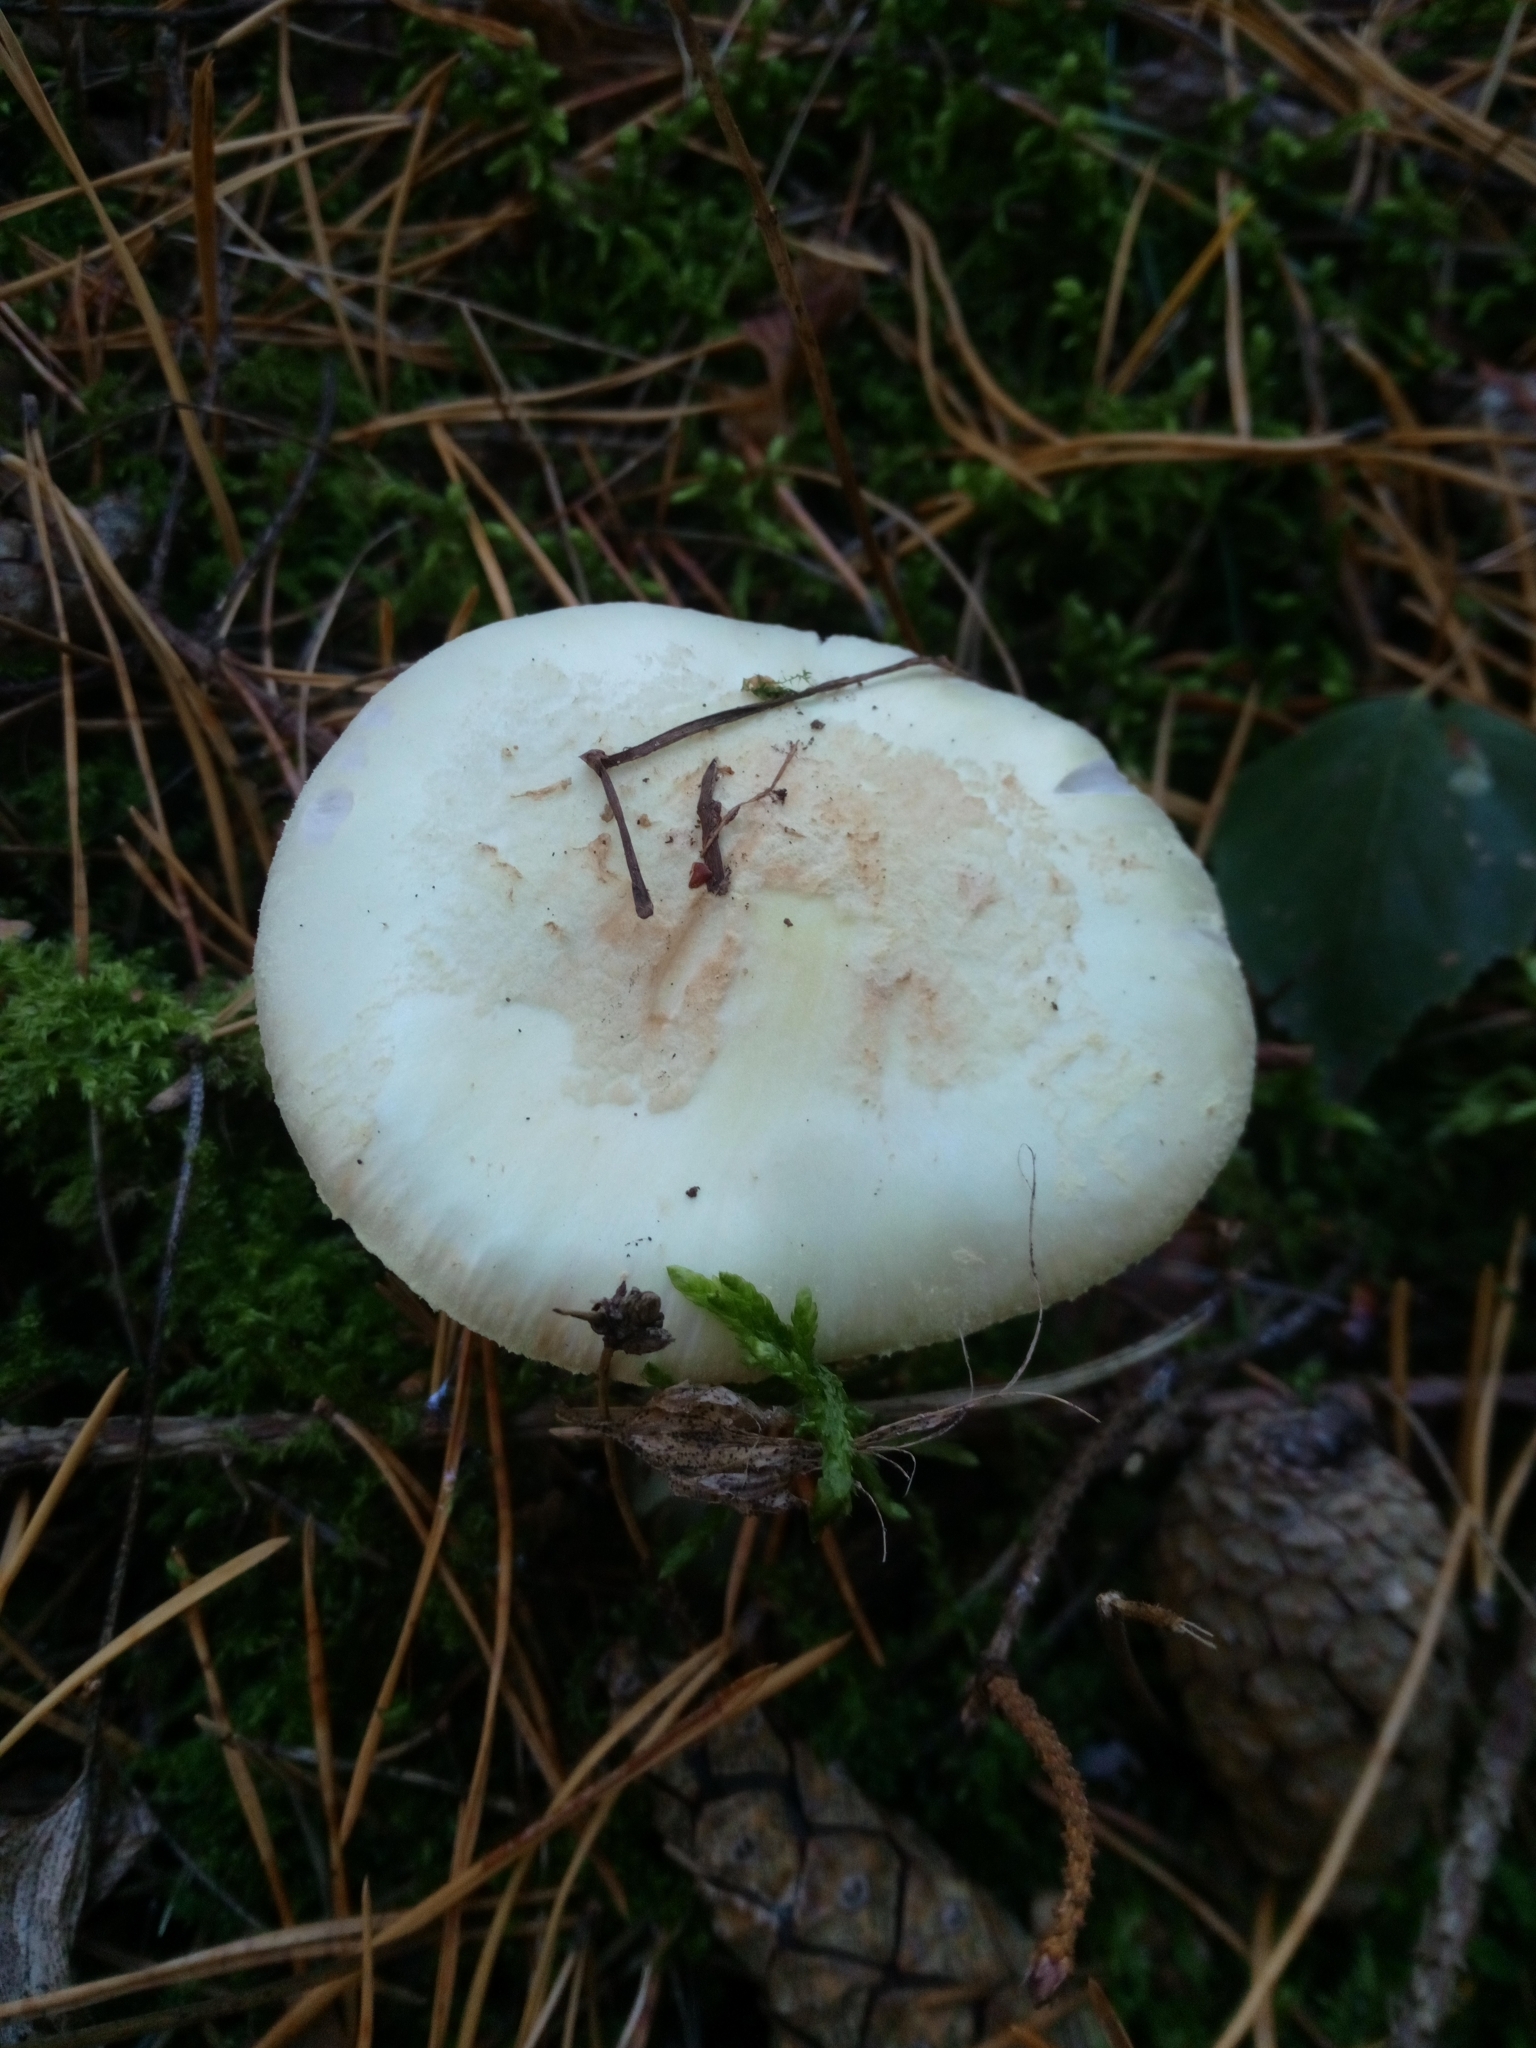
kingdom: Fungi
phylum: Basidiomycota
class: Agaricomycetes
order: Agaricales
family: Amanitaceae
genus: Amanita
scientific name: Amanita citrina
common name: False death-cap
